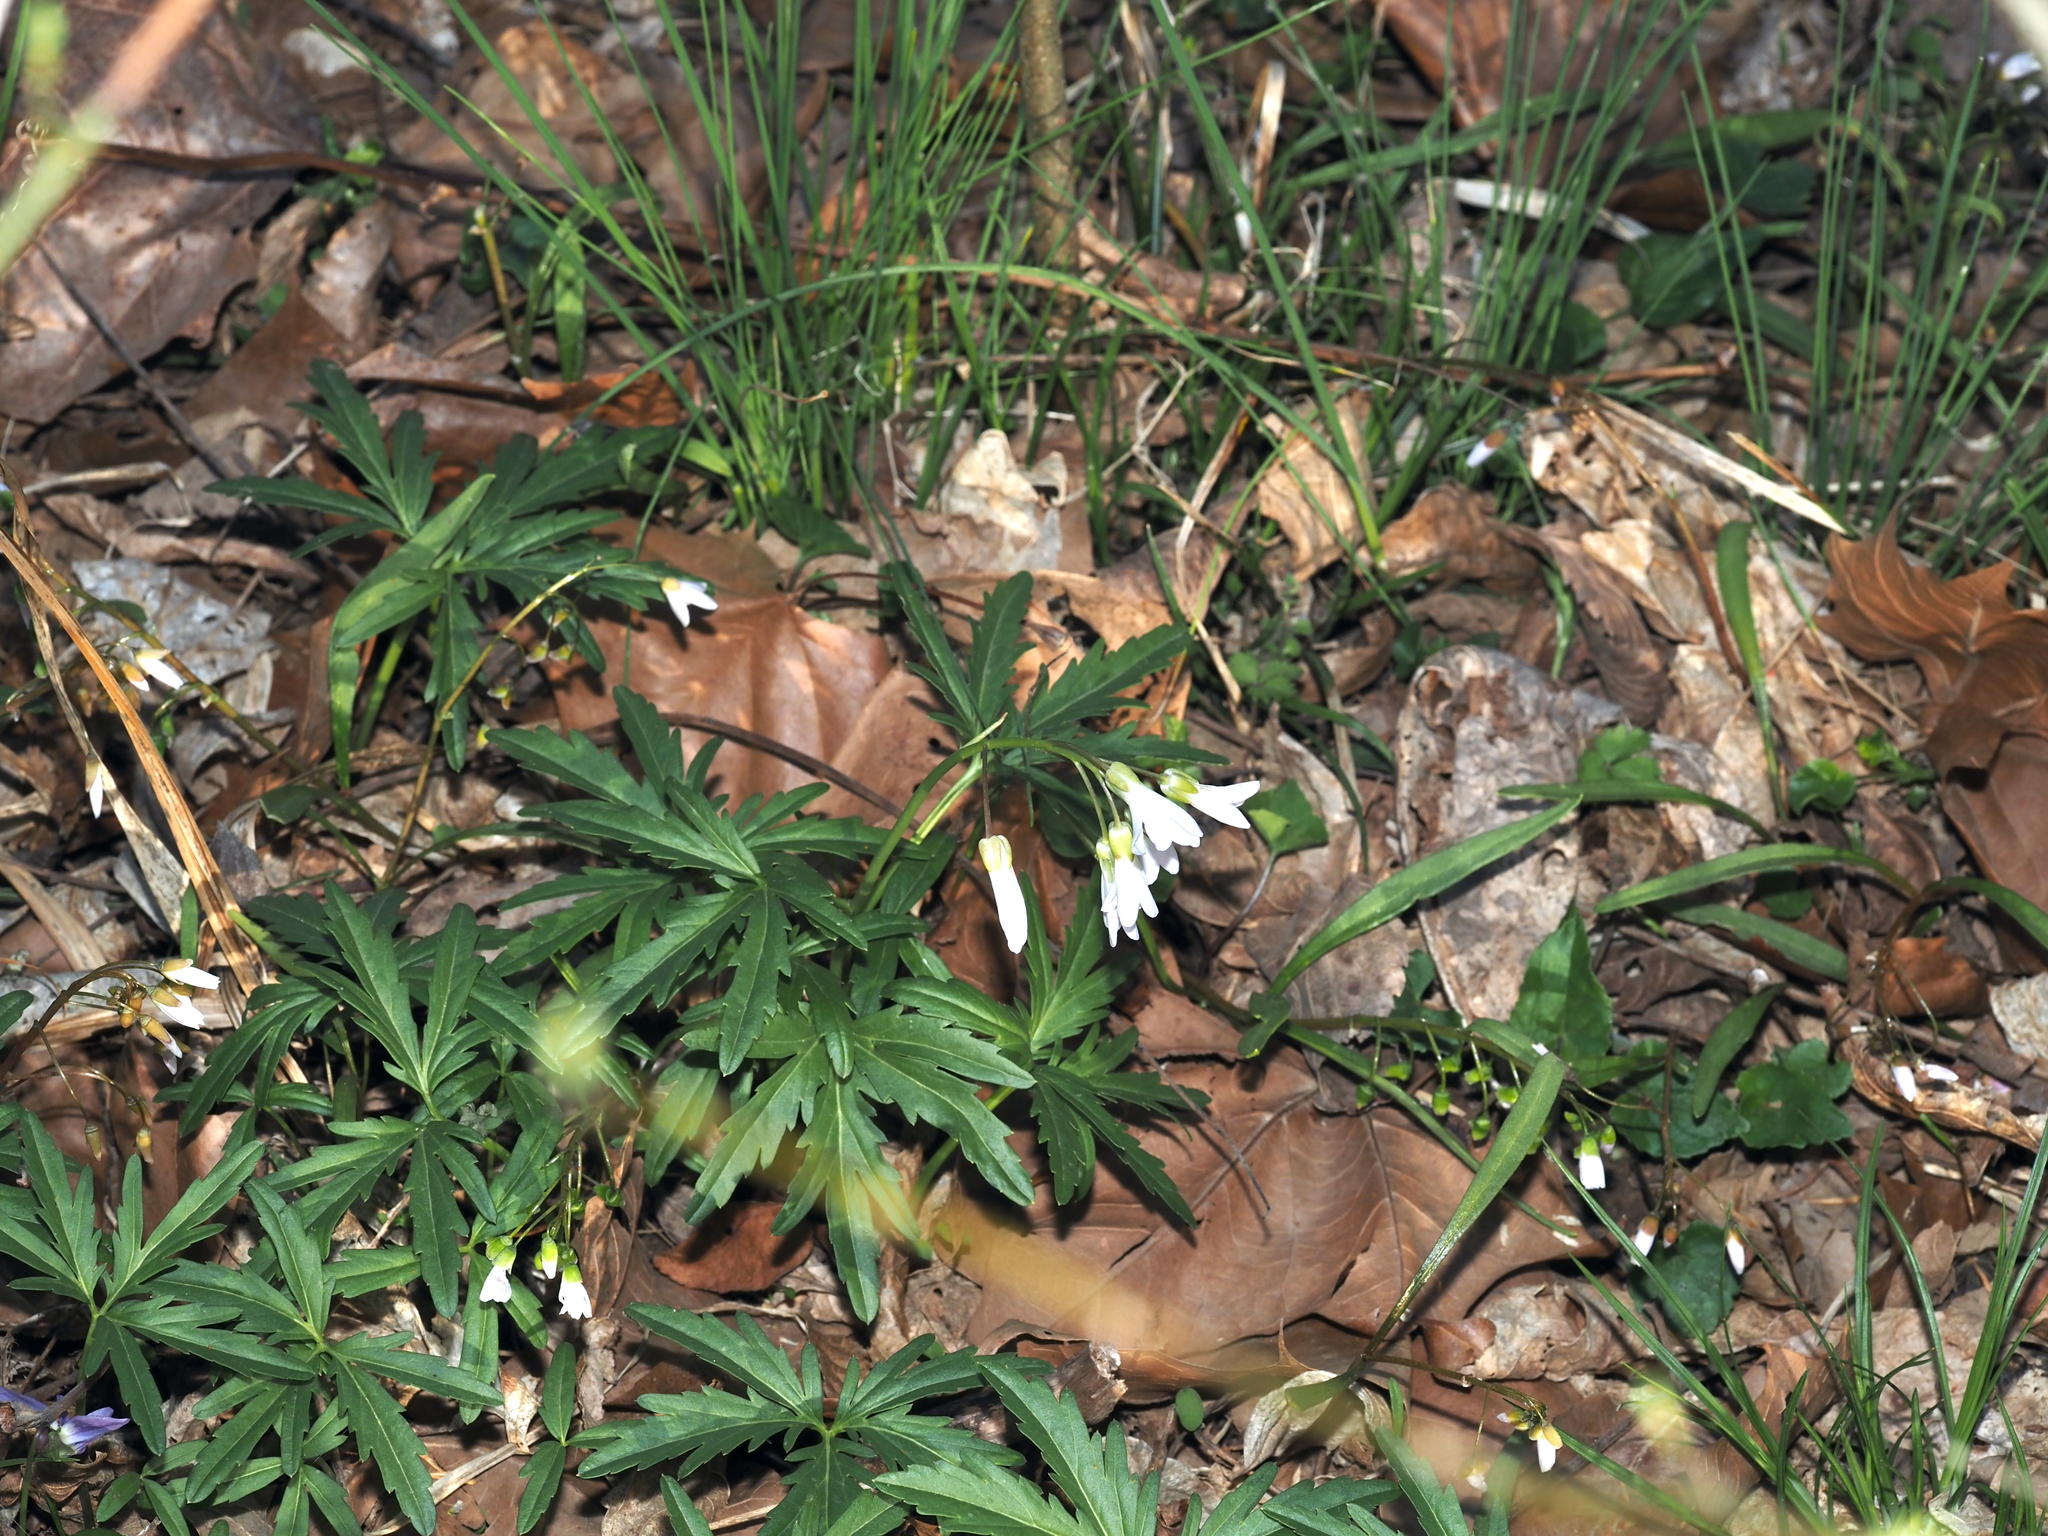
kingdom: Plantae
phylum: Tracheophyta
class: Magnoliopsida
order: Brassicales
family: Brassicaceae
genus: Cardamine
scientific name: Cardamine concatenata
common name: Cut-leaf toothcup
